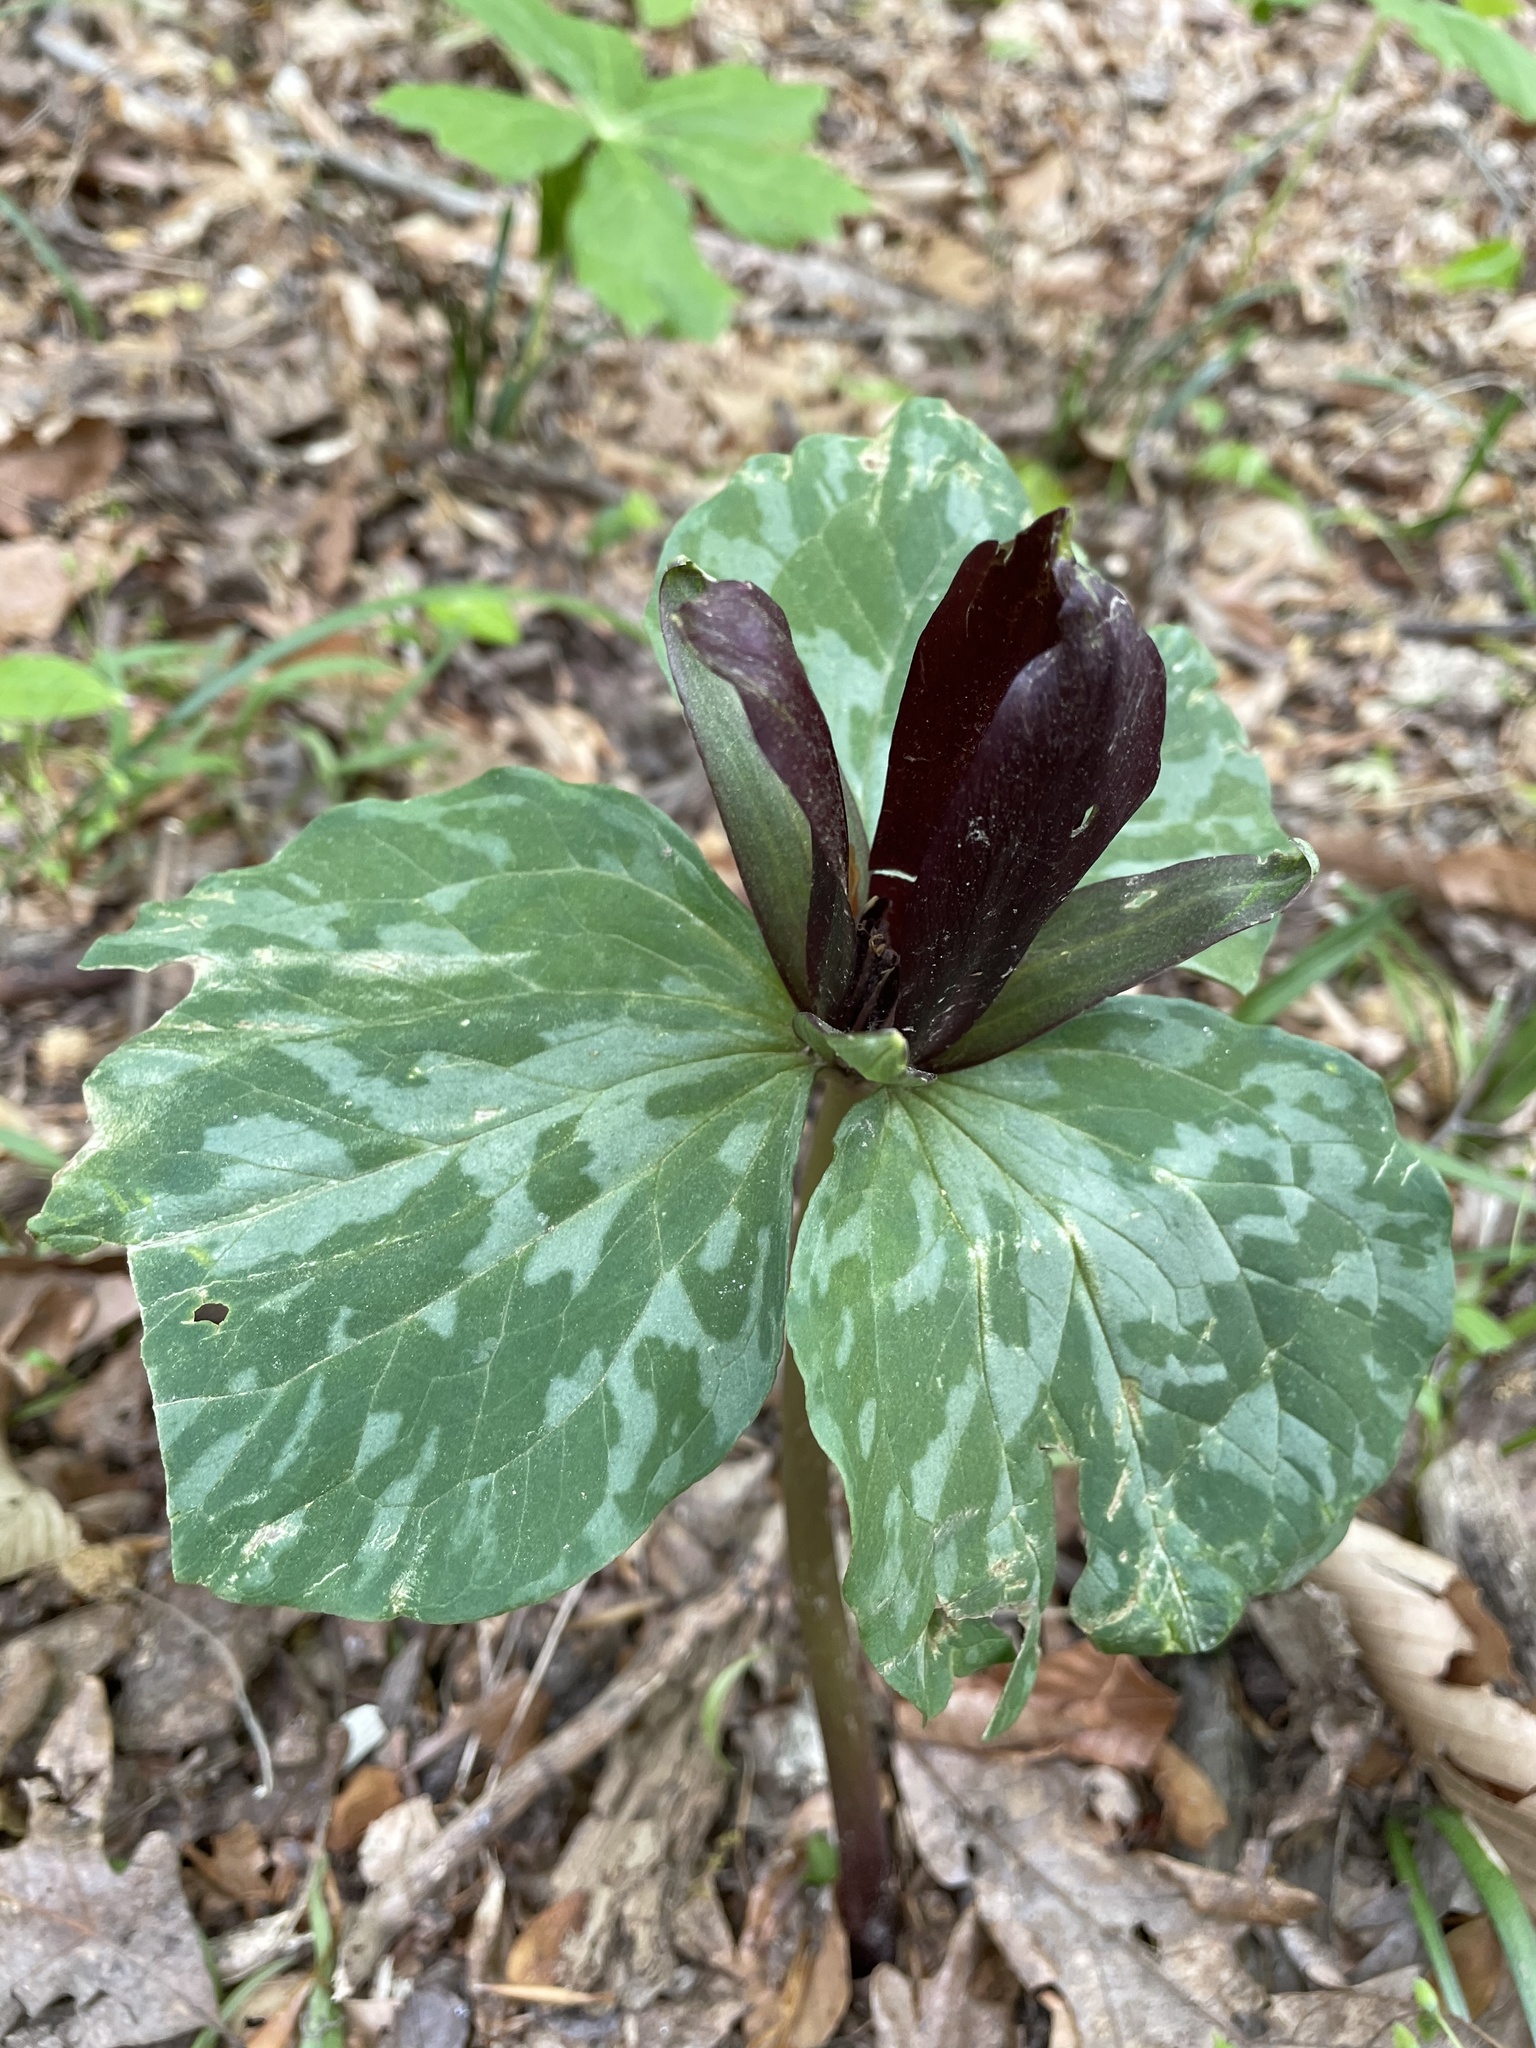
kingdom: Plantae
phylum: Tracheophyta
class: Liliopsida
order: Liliales
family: Melanthiaceae
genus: Trillium
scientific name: Trillium cuneatum
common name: Cuneate trillium
